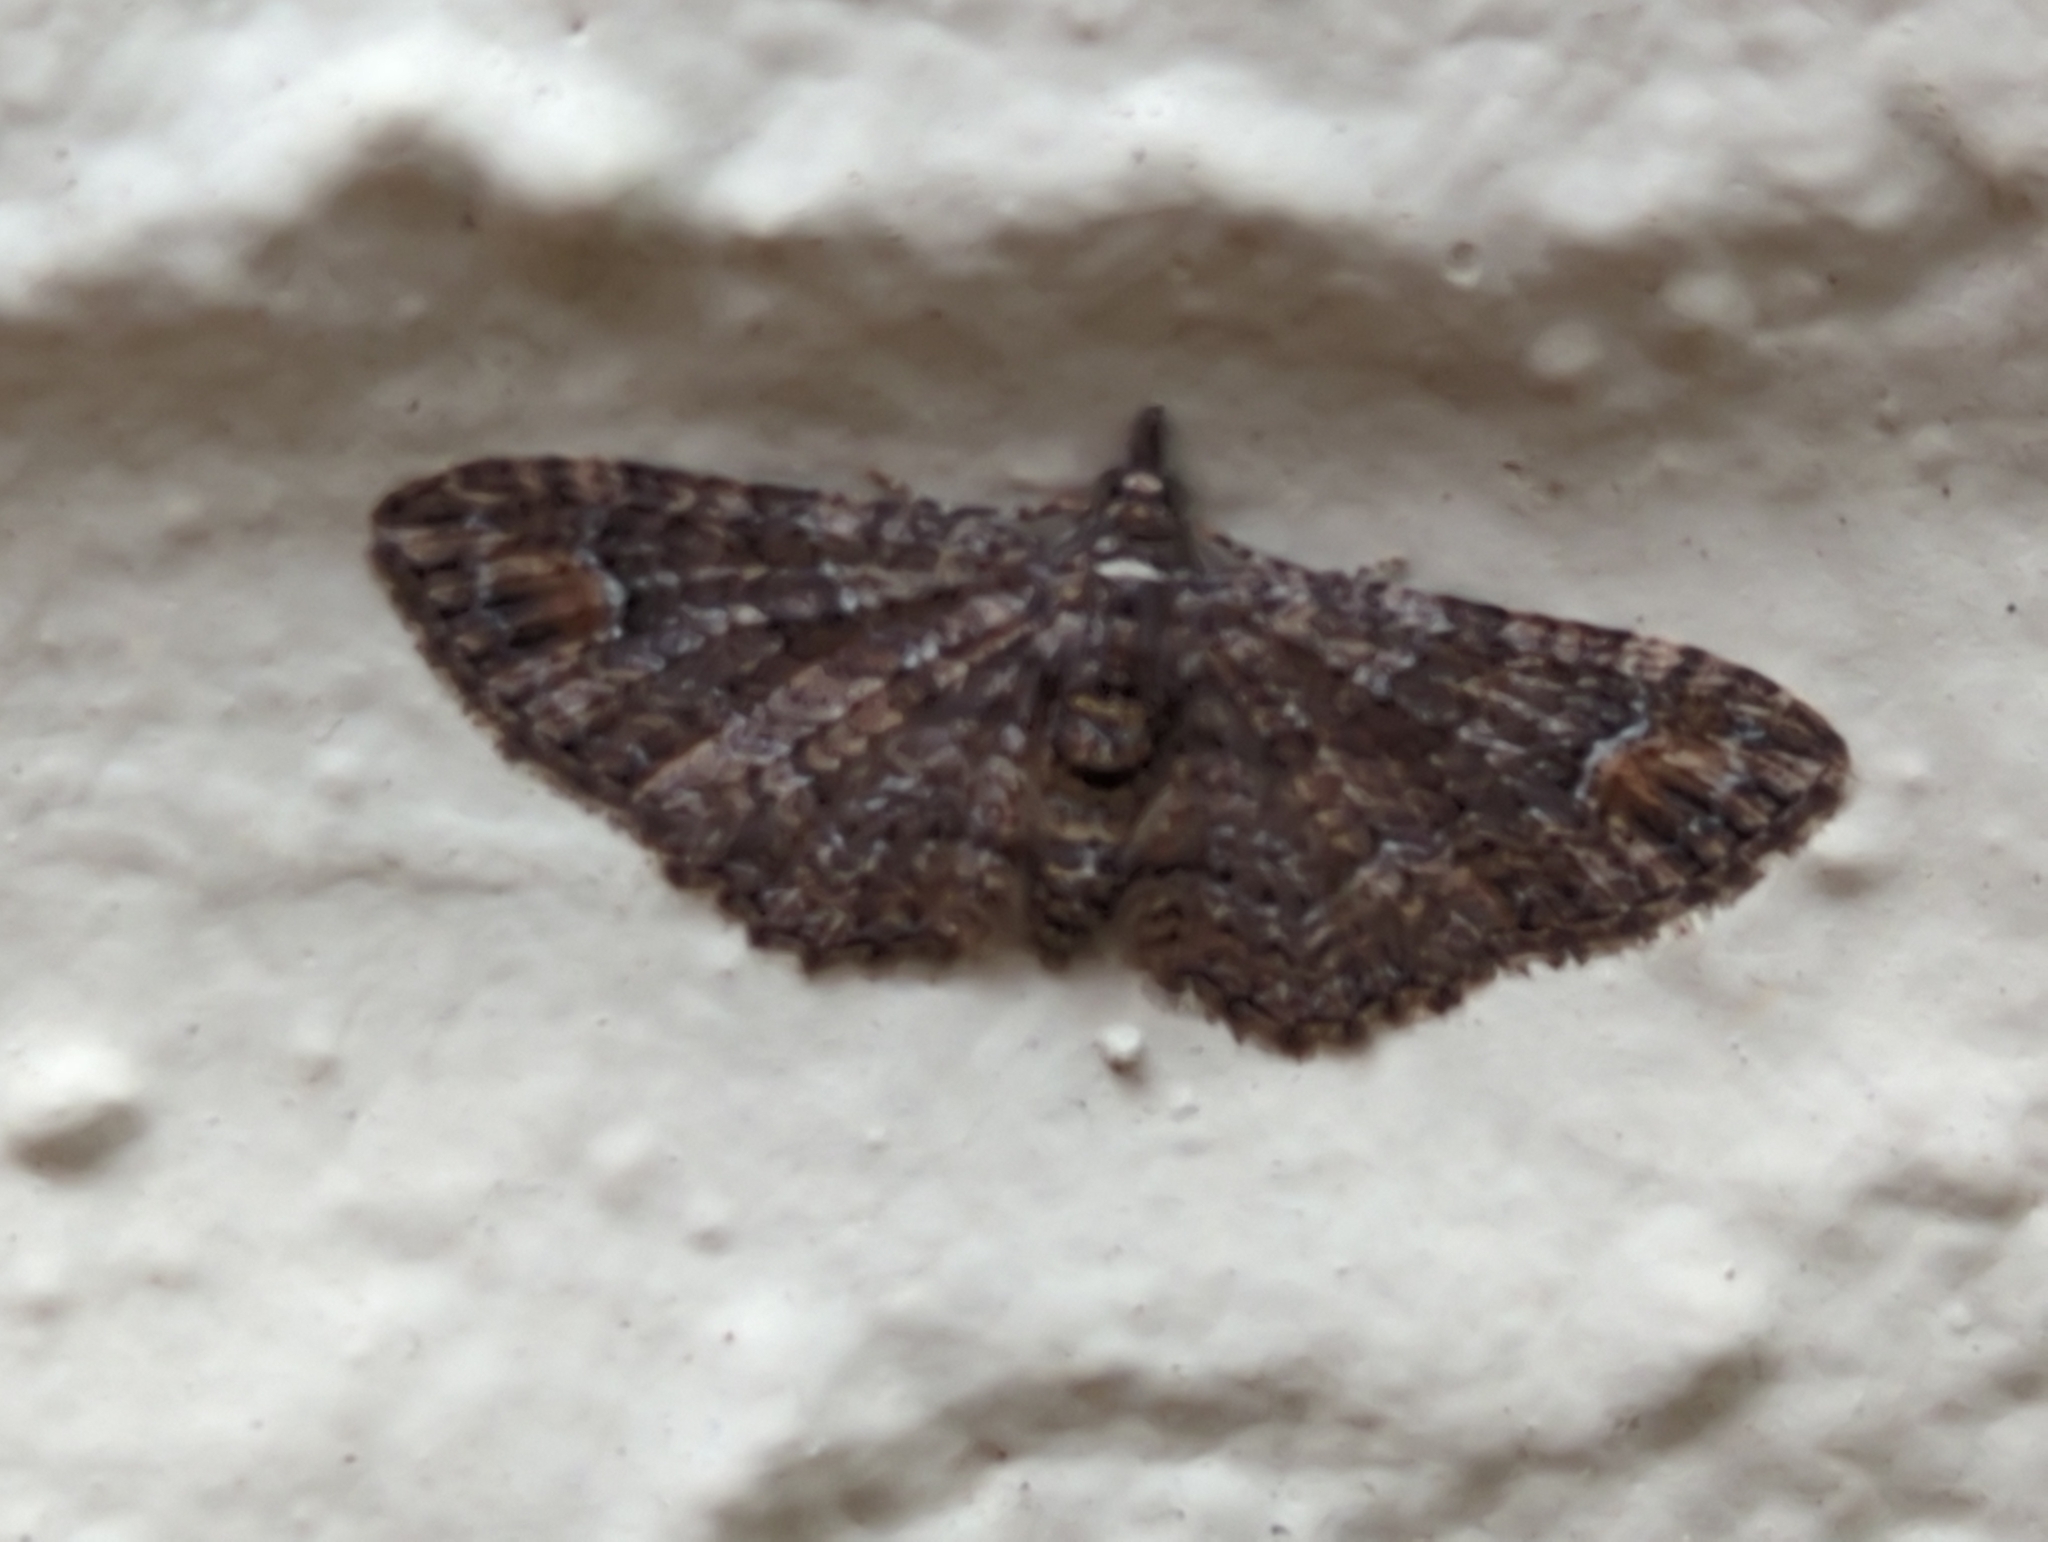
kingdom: Animalia
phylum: Arthropoda
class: Insecta
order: Lepidoptera
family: Geometridae
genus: Pasiphilodes
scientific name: Pasiphilodes testulata
